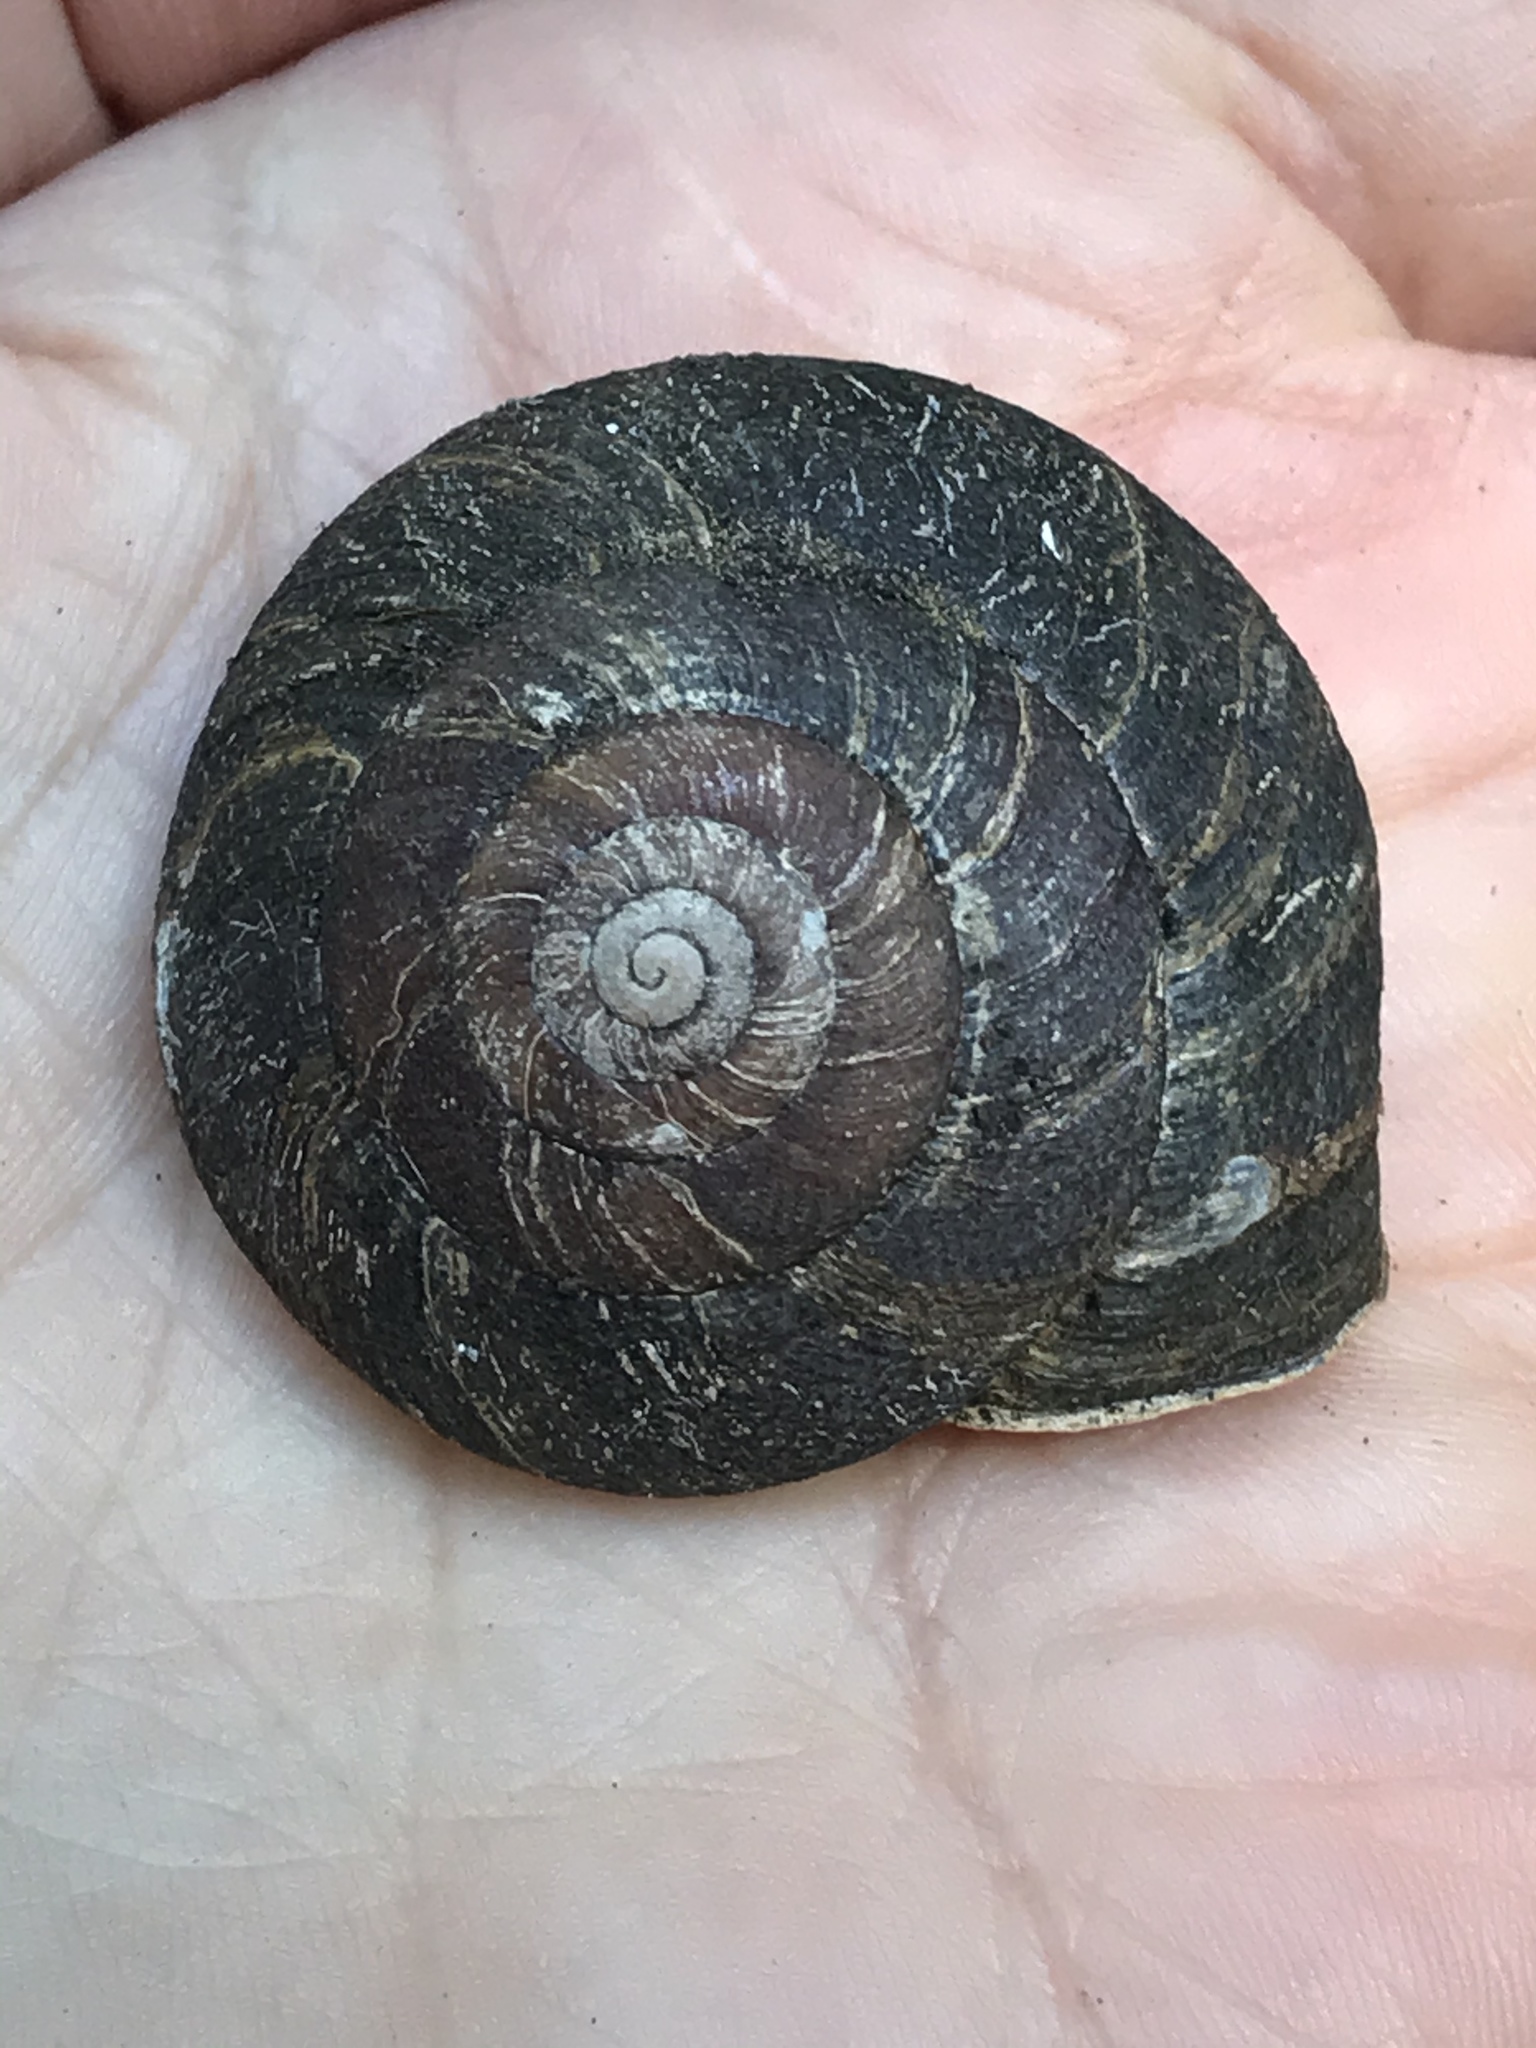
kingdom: Animalia
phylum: Mollusca
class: Gastropoda
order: Stylommatophora
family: Xanthonychidae
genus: Monadenia
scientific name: Monadenia infumata
